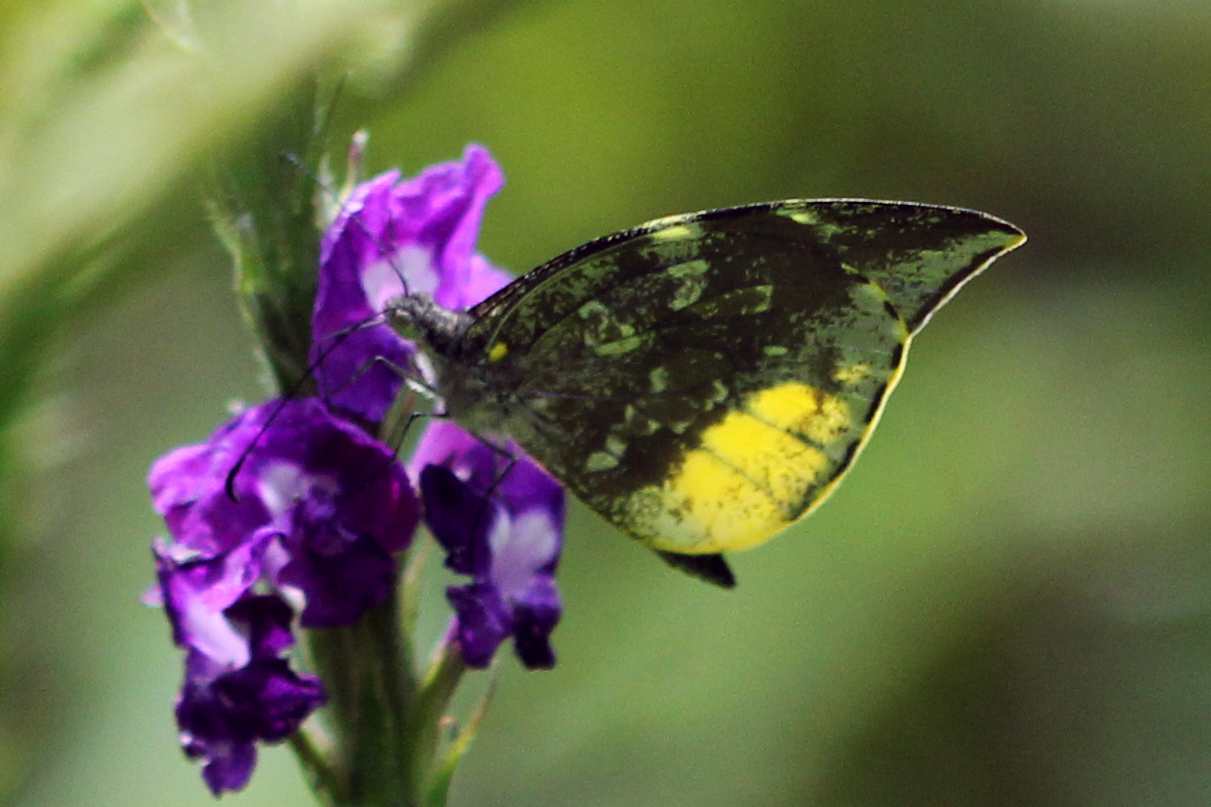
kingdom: Animalia
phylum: Arthropoda
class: Insecta
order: Lepidoptera
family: Pieridae
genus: Lieinix
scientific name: Lieinix nemesis
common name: Frosted mimic-white
